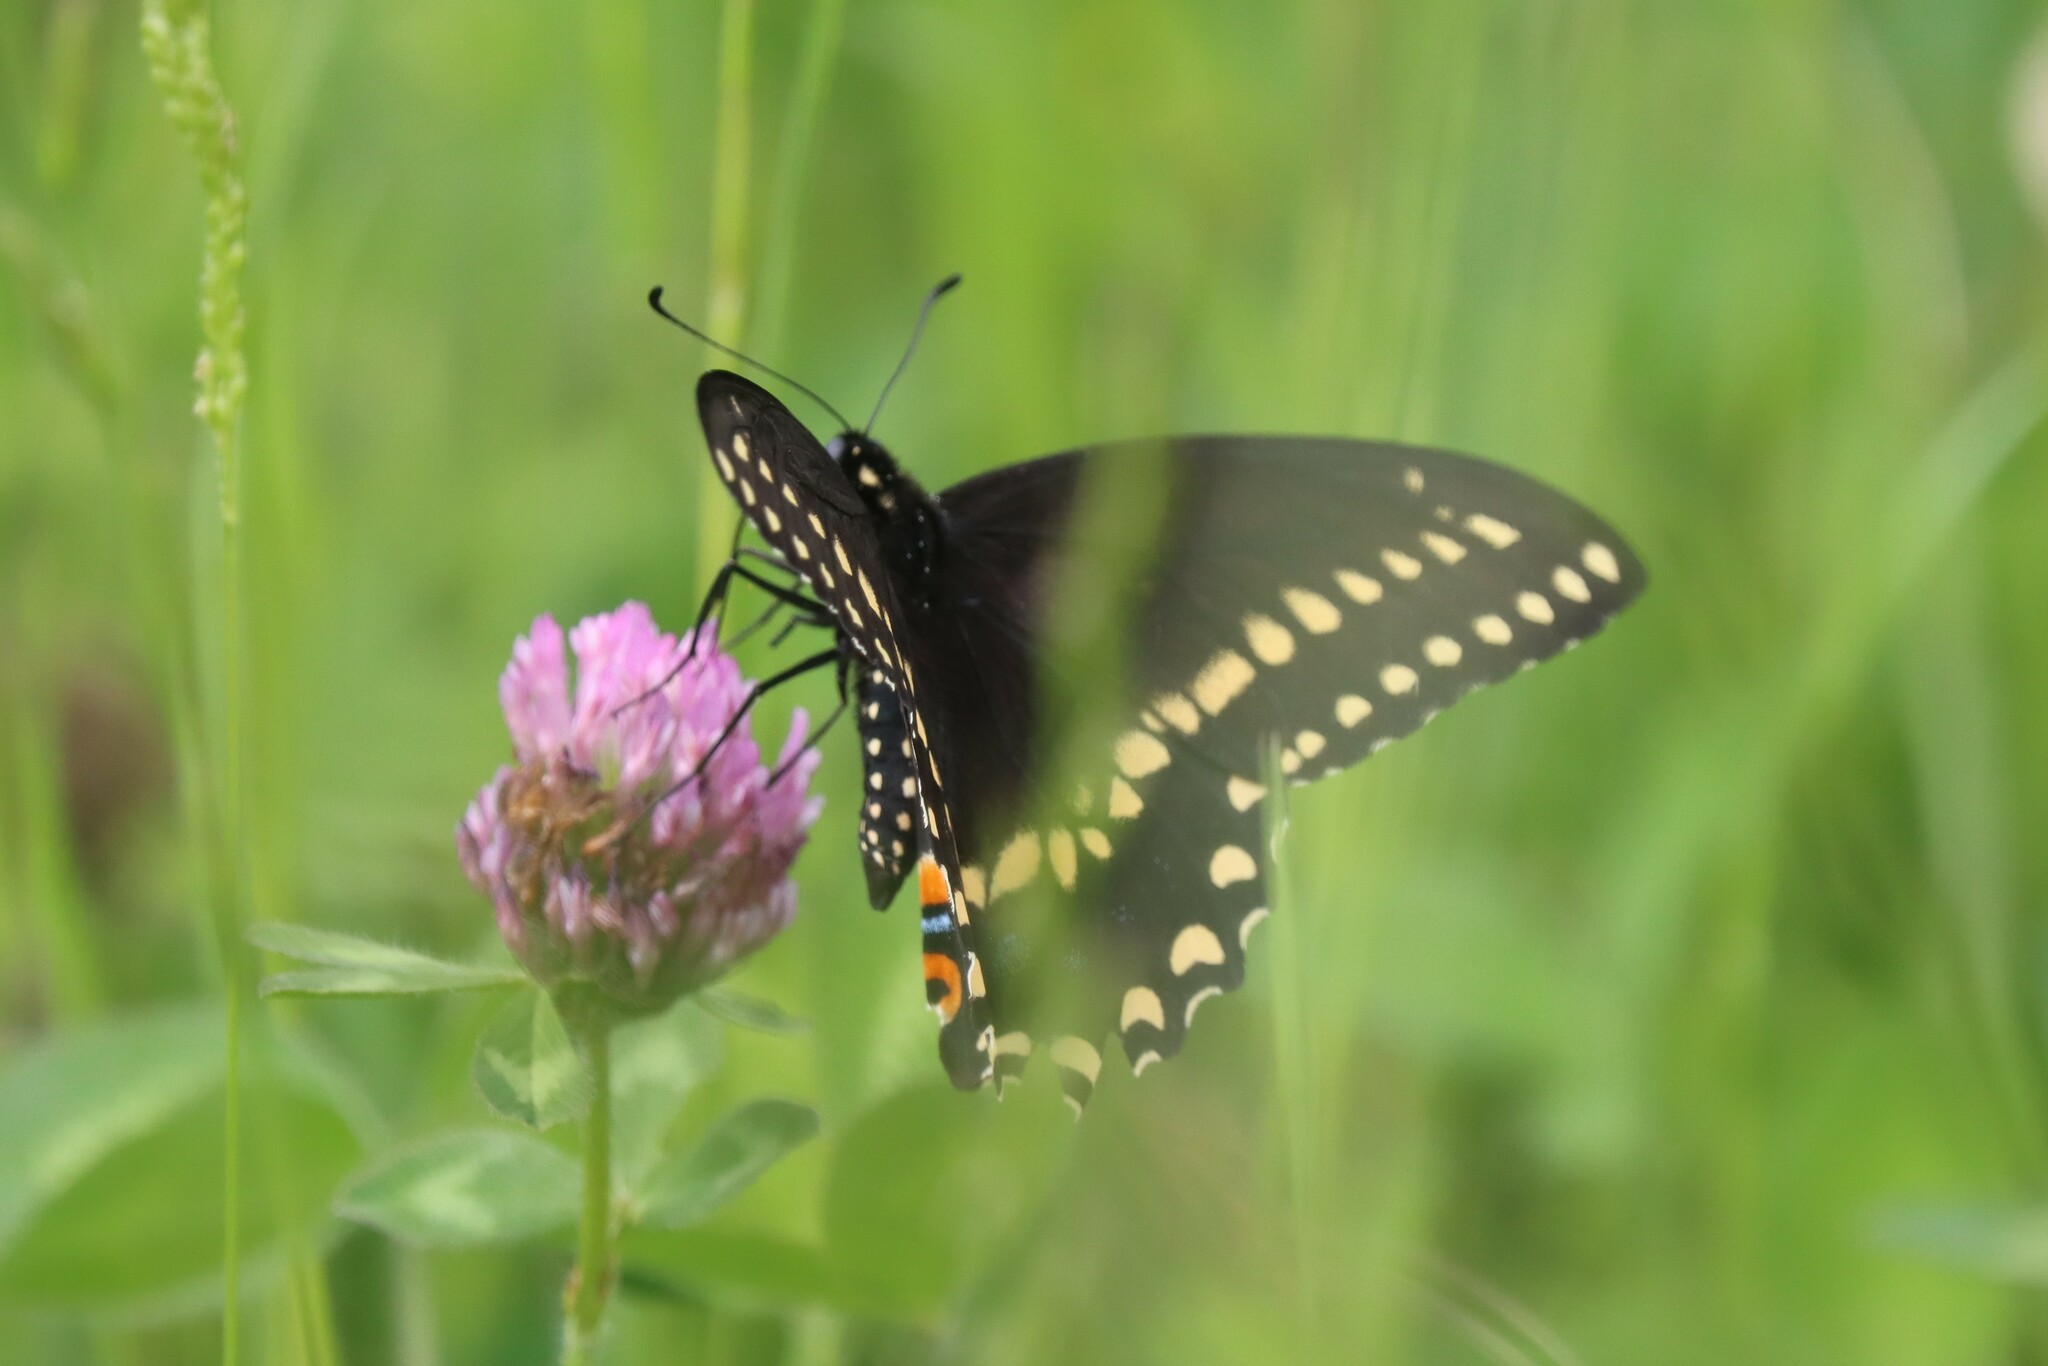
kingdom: Animalia
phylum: Arthropoda
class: Insecta
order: Lepidoptera
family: Papilionidae
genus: Papilio
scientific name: Papilio polyxenes
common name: Black swallowtail
